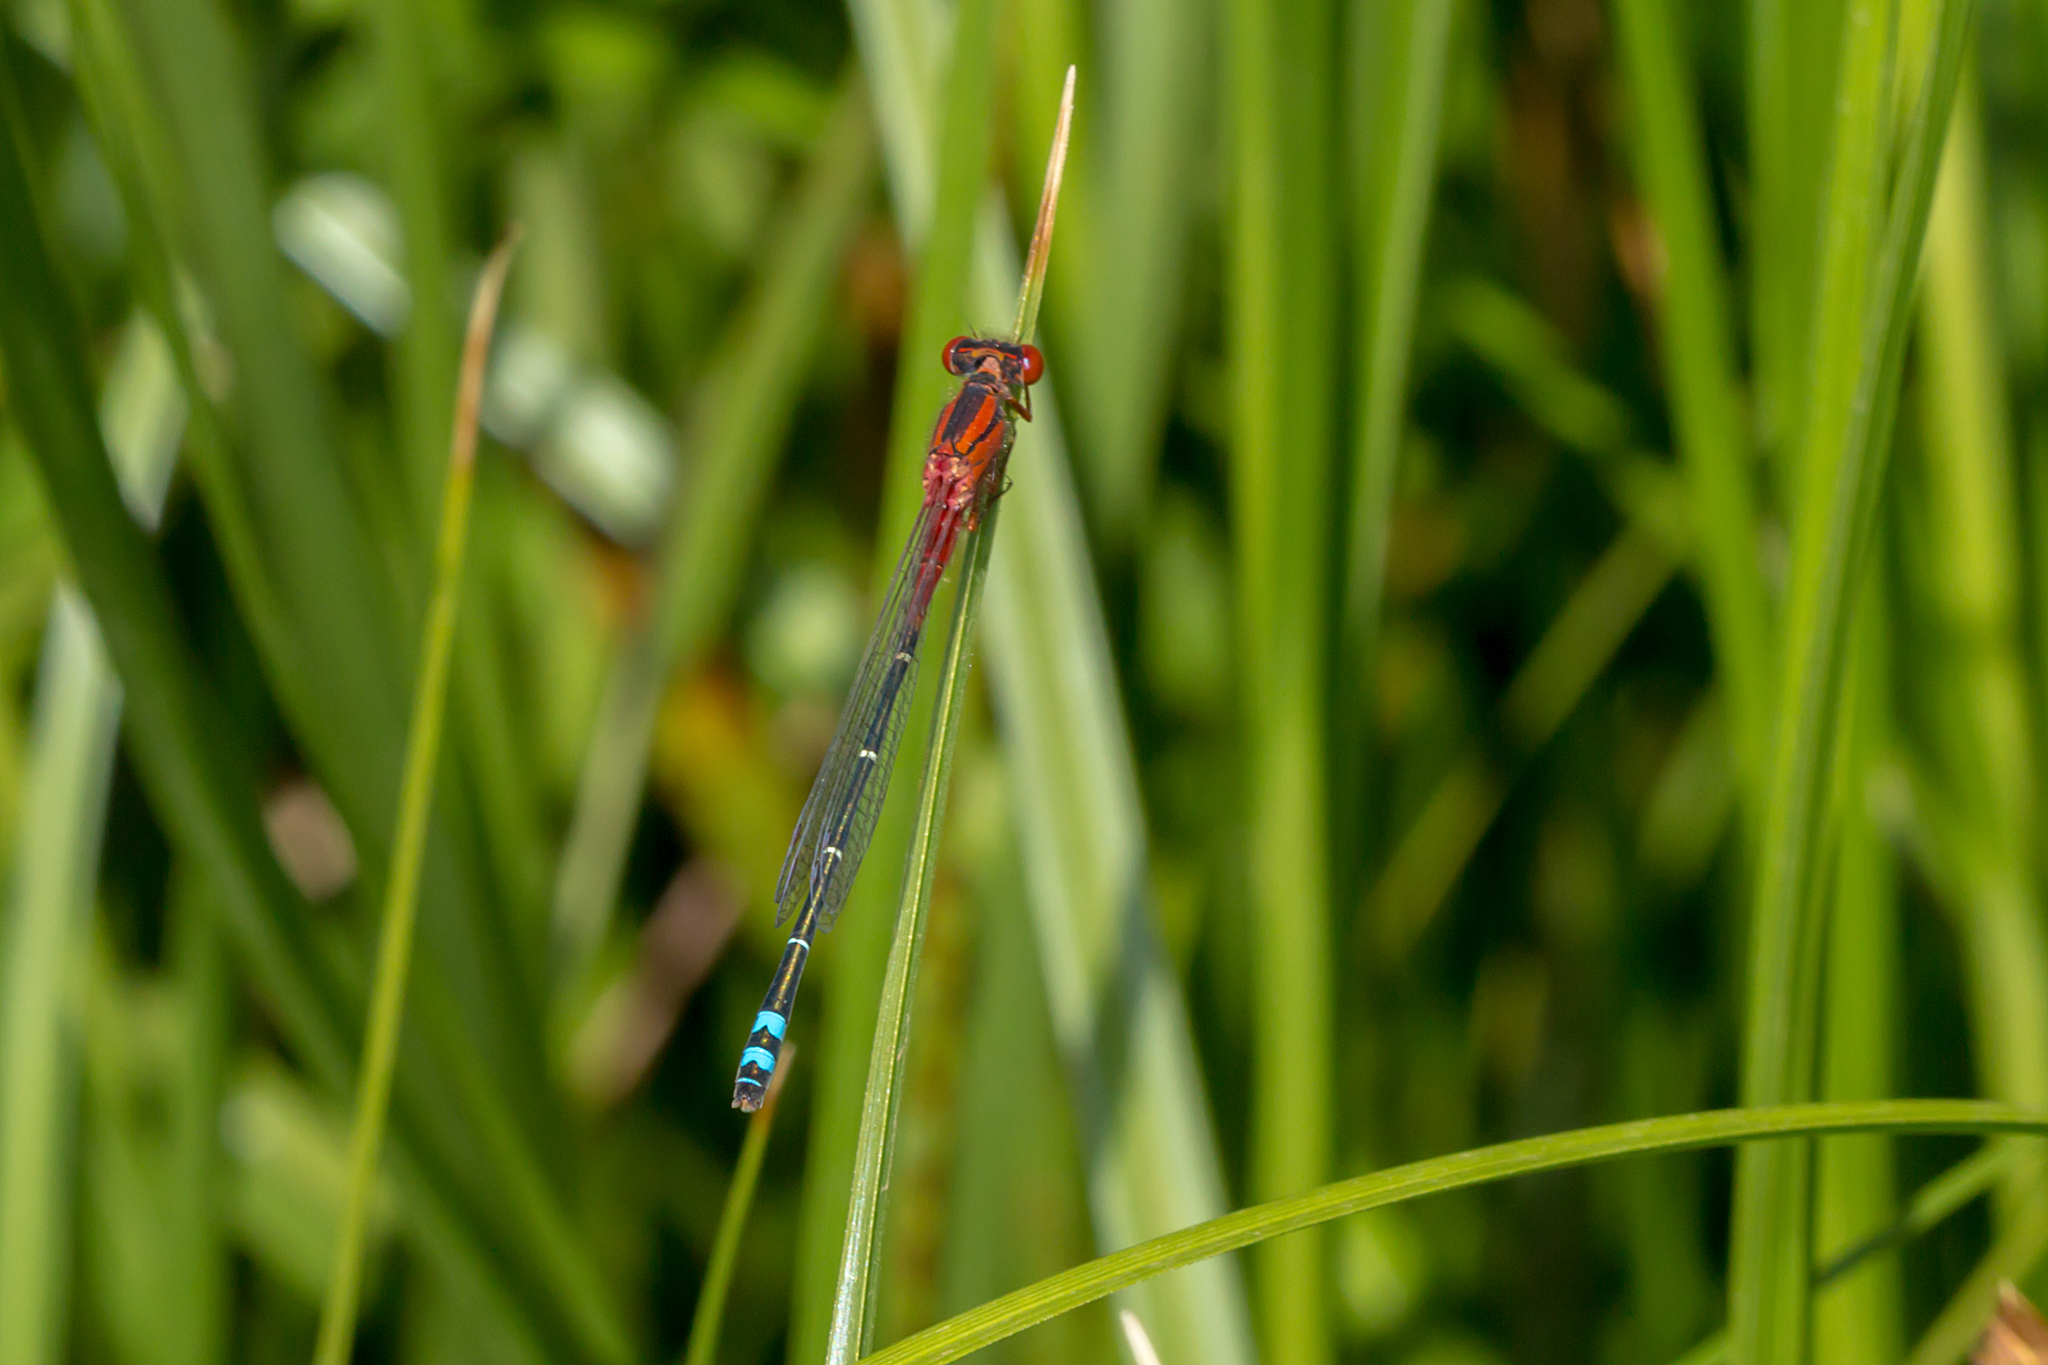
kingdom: Animalia
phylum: Arthropoda
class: Insecta
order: Odonata
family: Coenagrionidae
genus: Xanthagrion
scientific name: Xanthagrion erythroneurum
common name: Red and blue damsel
